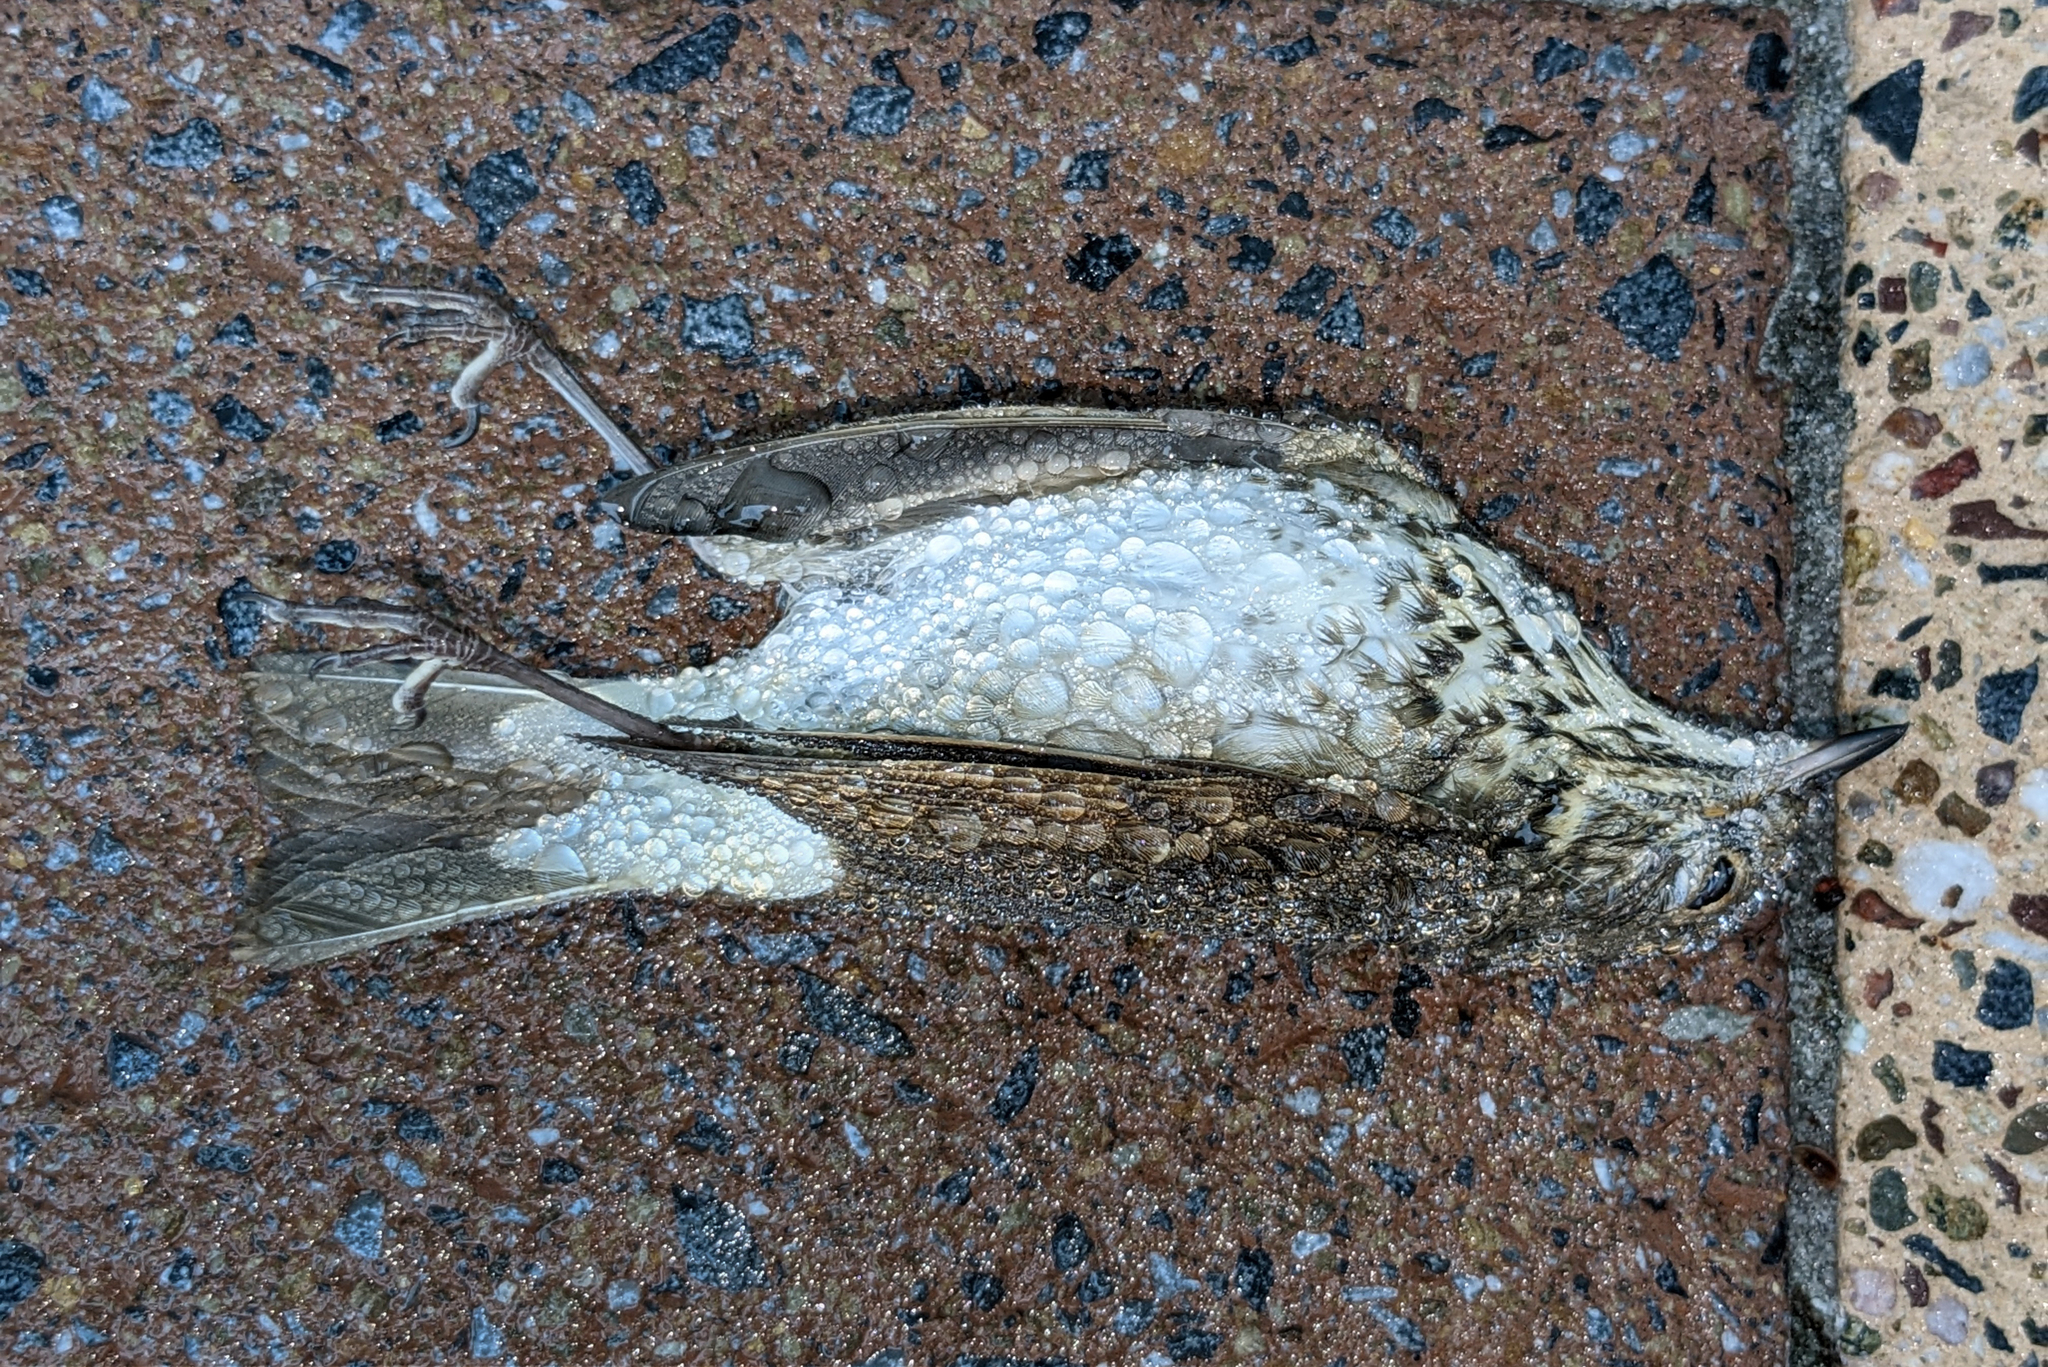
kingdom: Animalia
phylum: Chordata
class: Aves
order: Passeriformes
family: Turdidae
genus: Catharus
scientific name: Catharus guttatus
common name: Hermit thrush
